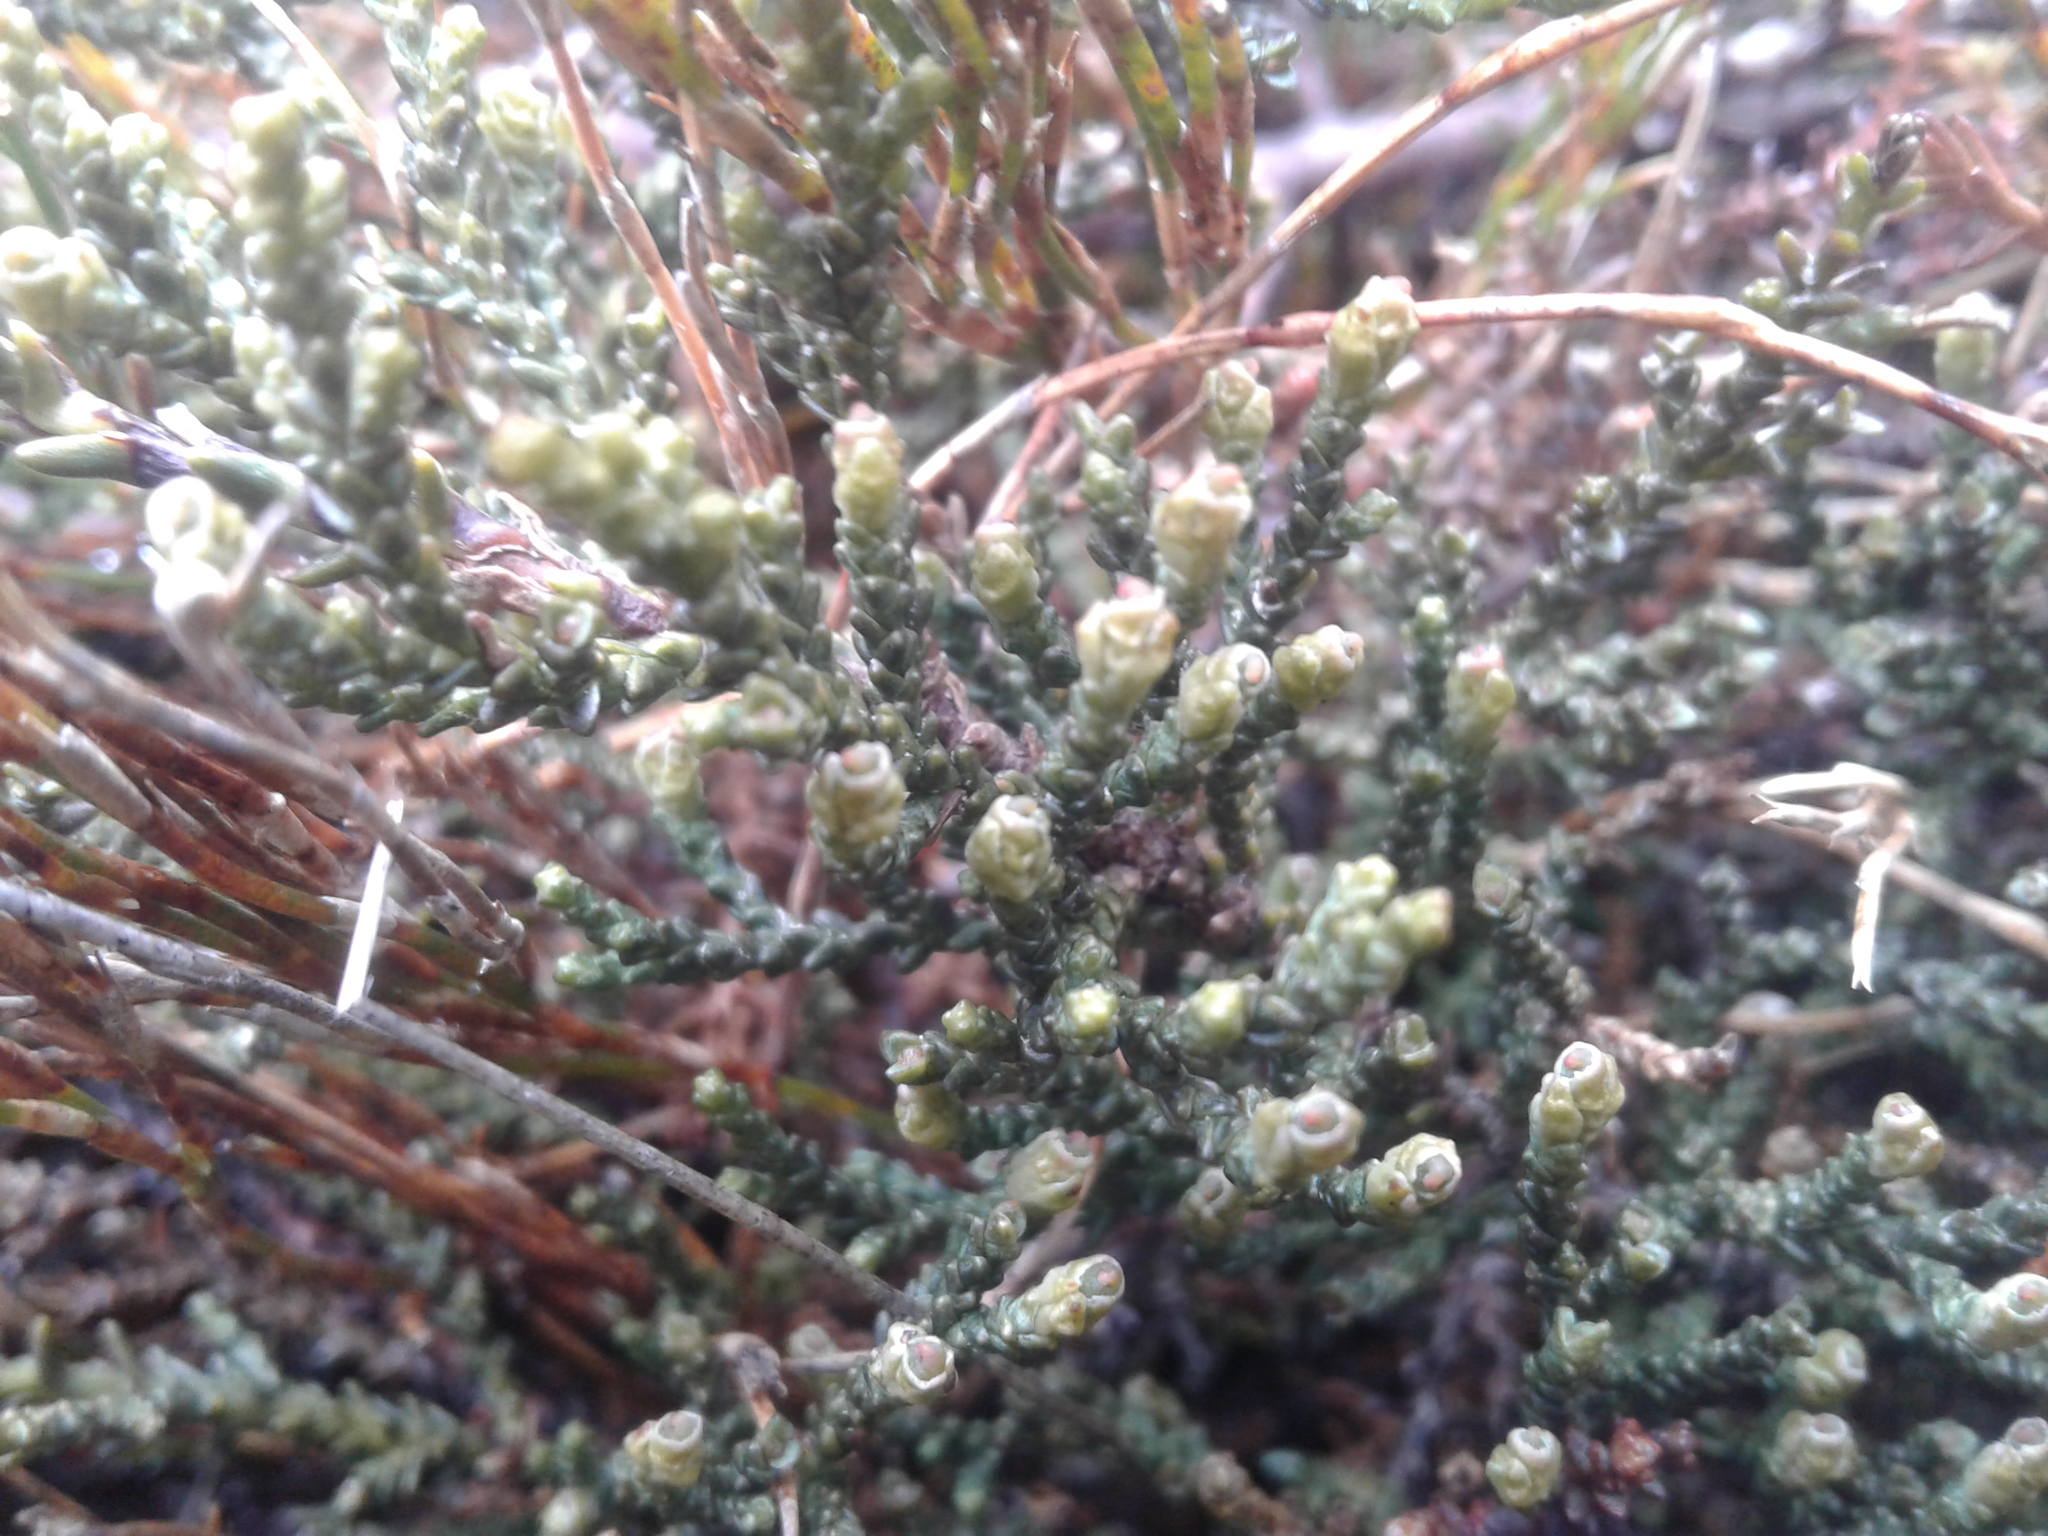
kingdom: Plantae
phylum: Tracheophyta
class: Pinopsida
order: Pinales
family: Podocarpaceae
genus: Lepidothamnus
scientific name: Lepidothamnus laxifolius
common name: Pygmy pine
